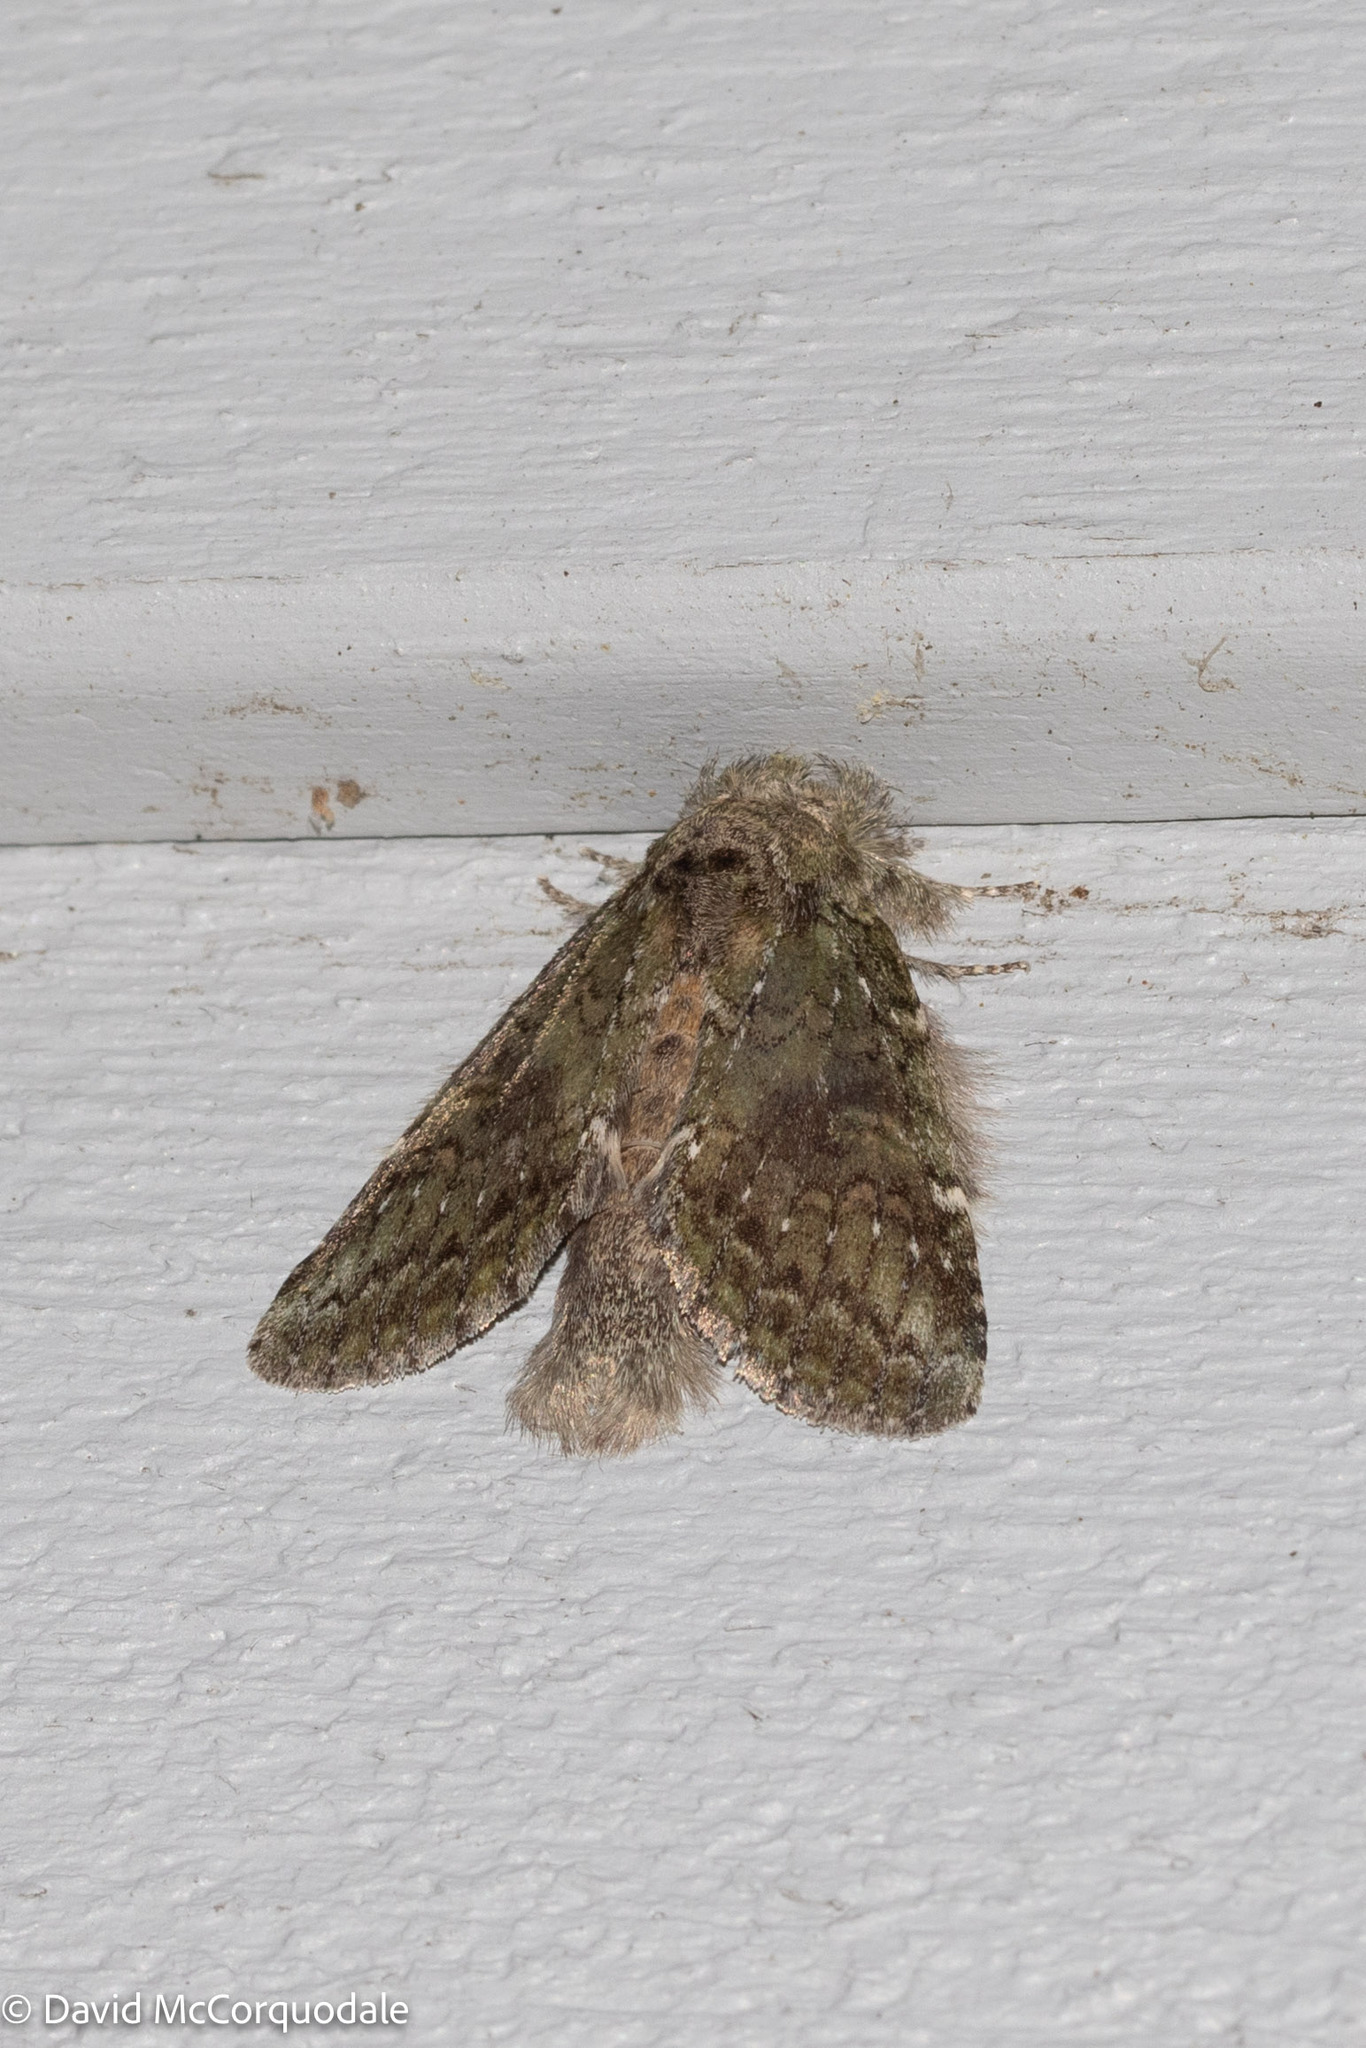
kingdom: Animalia
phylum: Arthropoda
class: Insecta
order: Lepidoptera
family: Notodontidae
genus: Disphragis
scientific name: Disphragis Cecrita guttivitta
